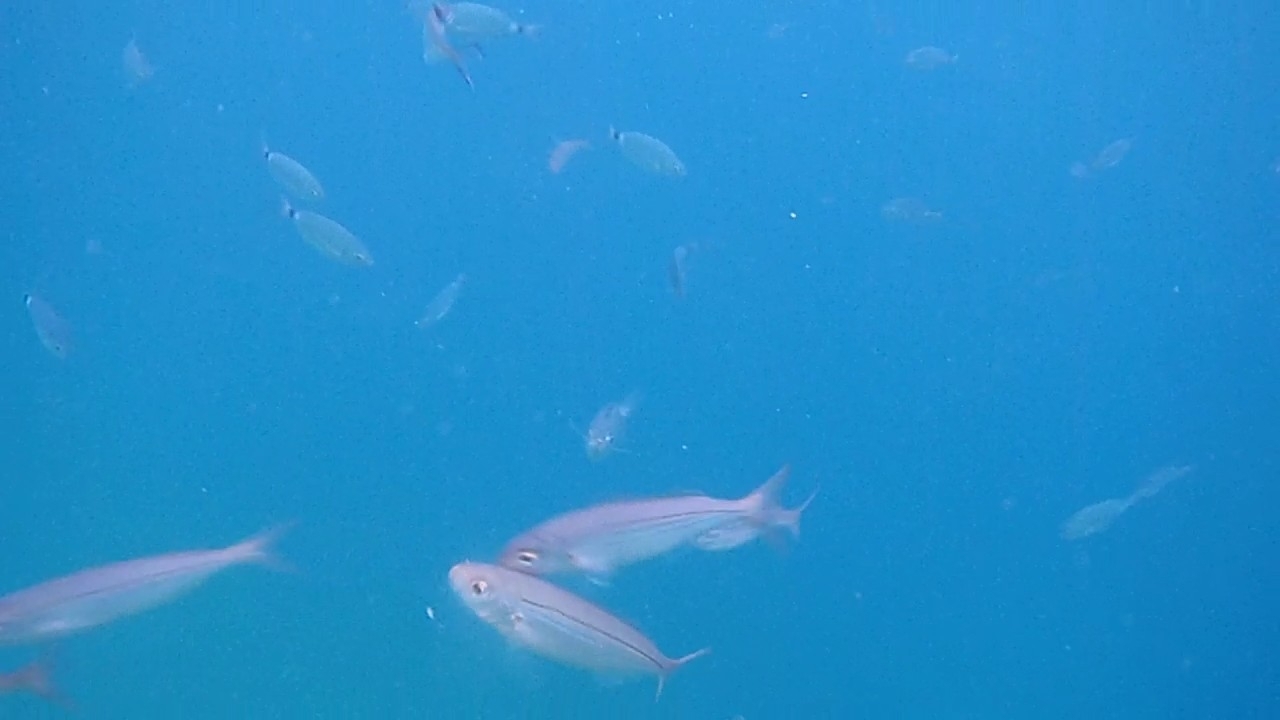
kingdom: Animalia
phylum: Chordata
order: Perciformes
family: Sparidae
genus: Boops
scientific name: Boops boops
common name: Bogue
